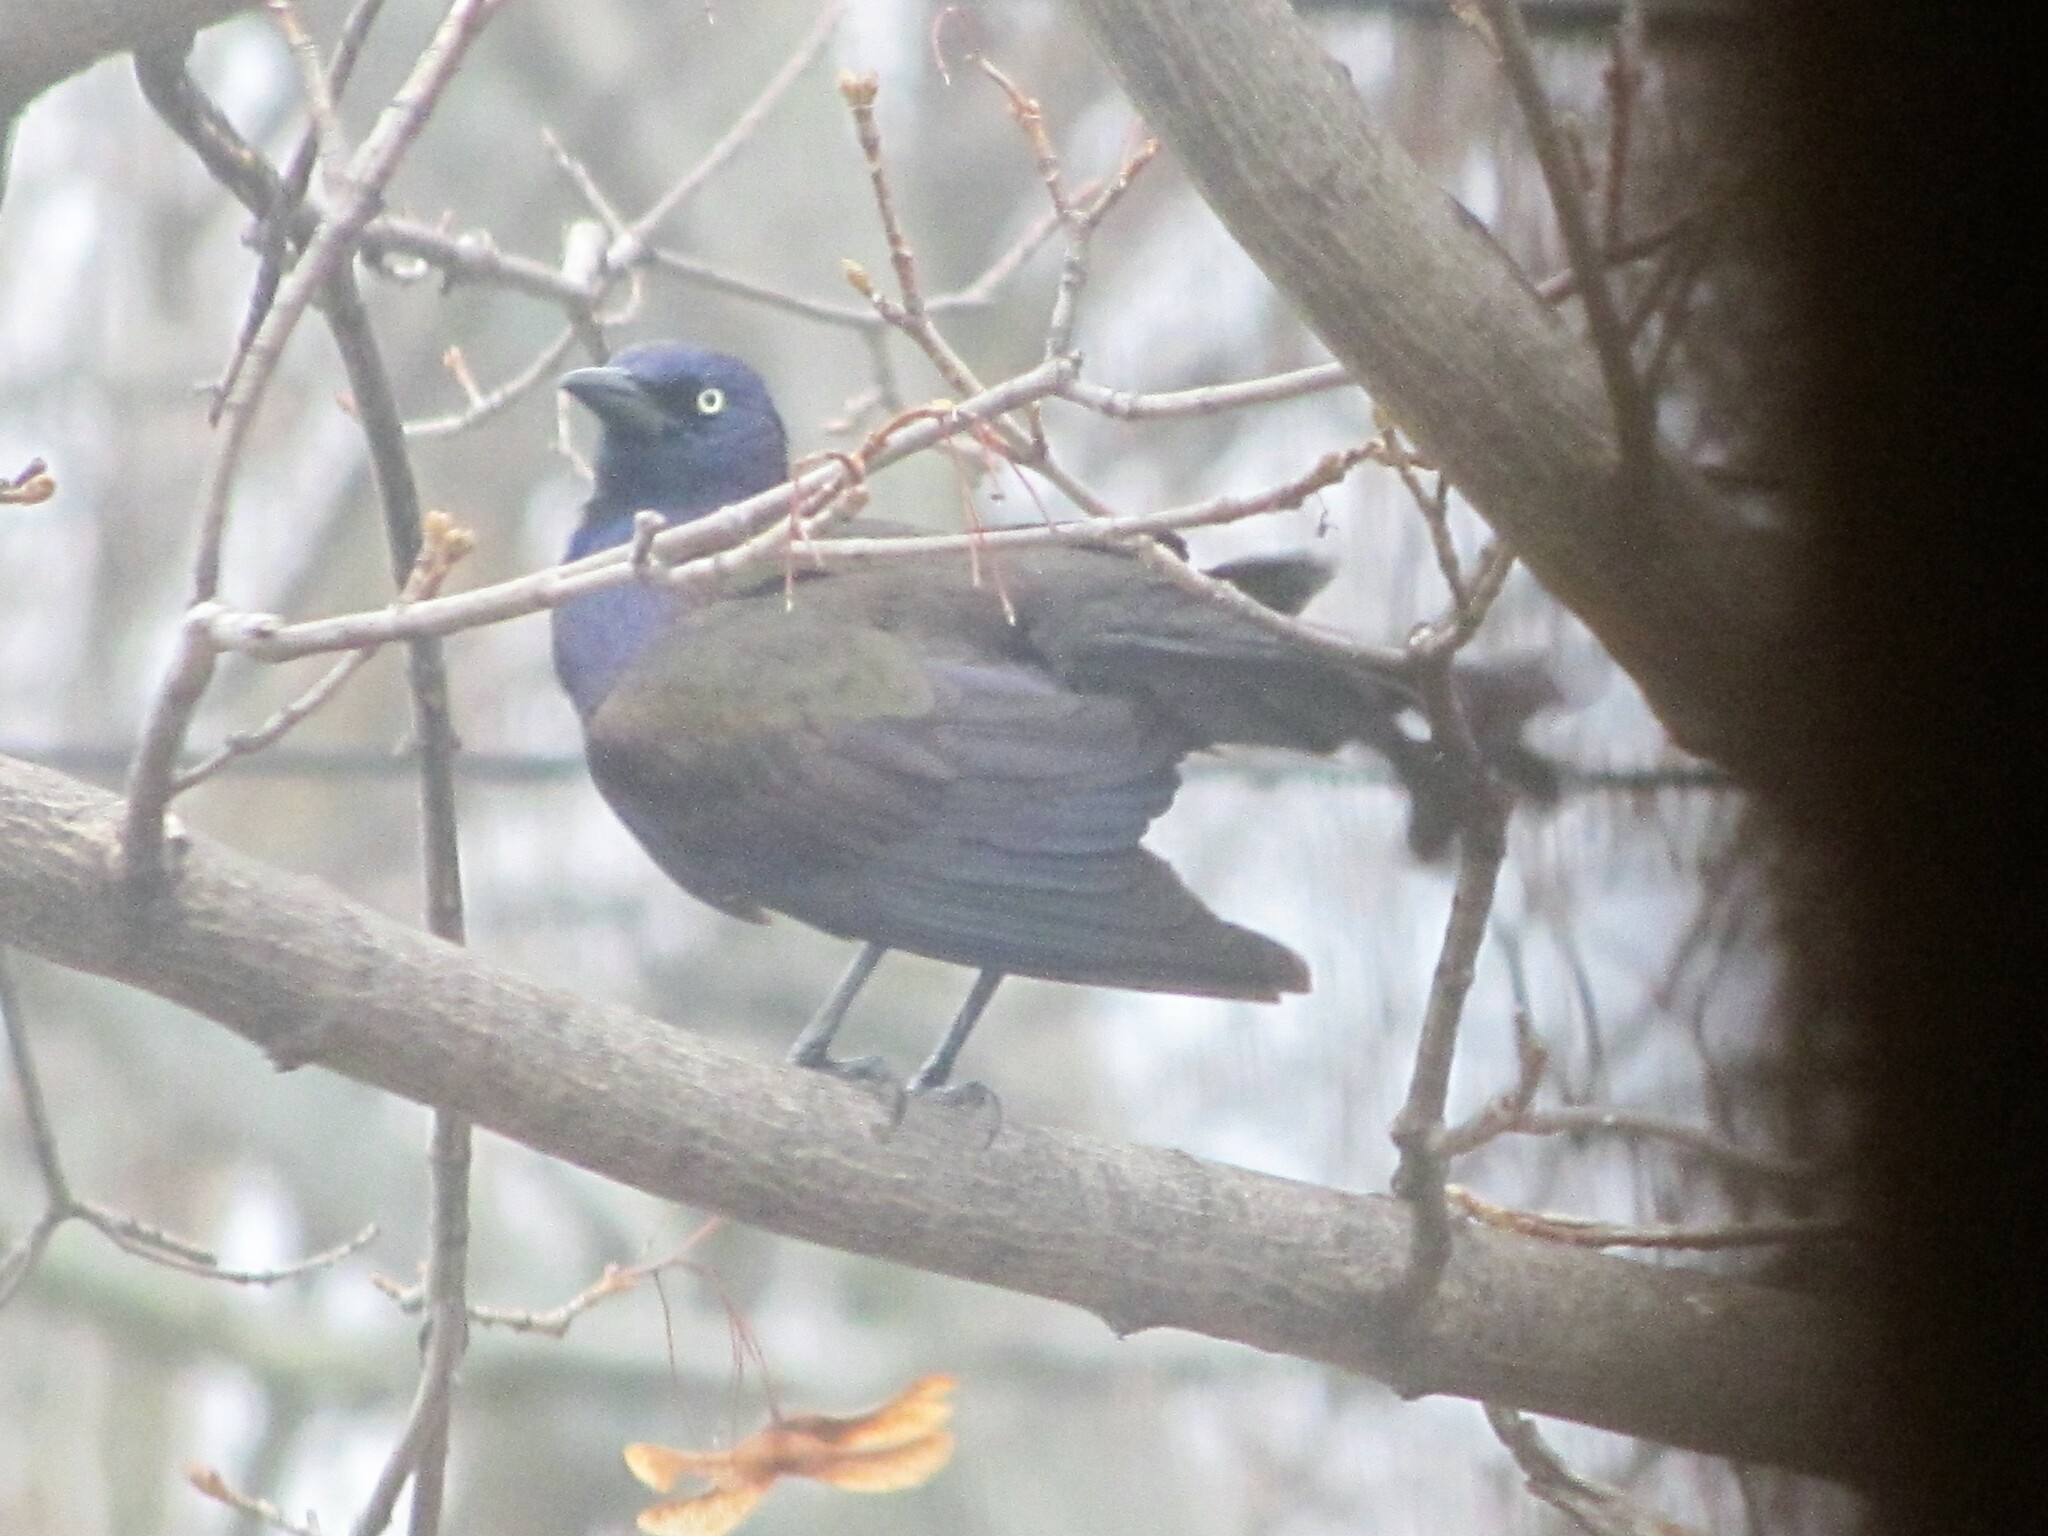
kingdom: Animalia
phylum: Chordata
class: Aves
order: Passeriformes
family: Icteridae
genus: Quiscalus
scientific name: Quiscalus quiscula
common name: Common grackle
